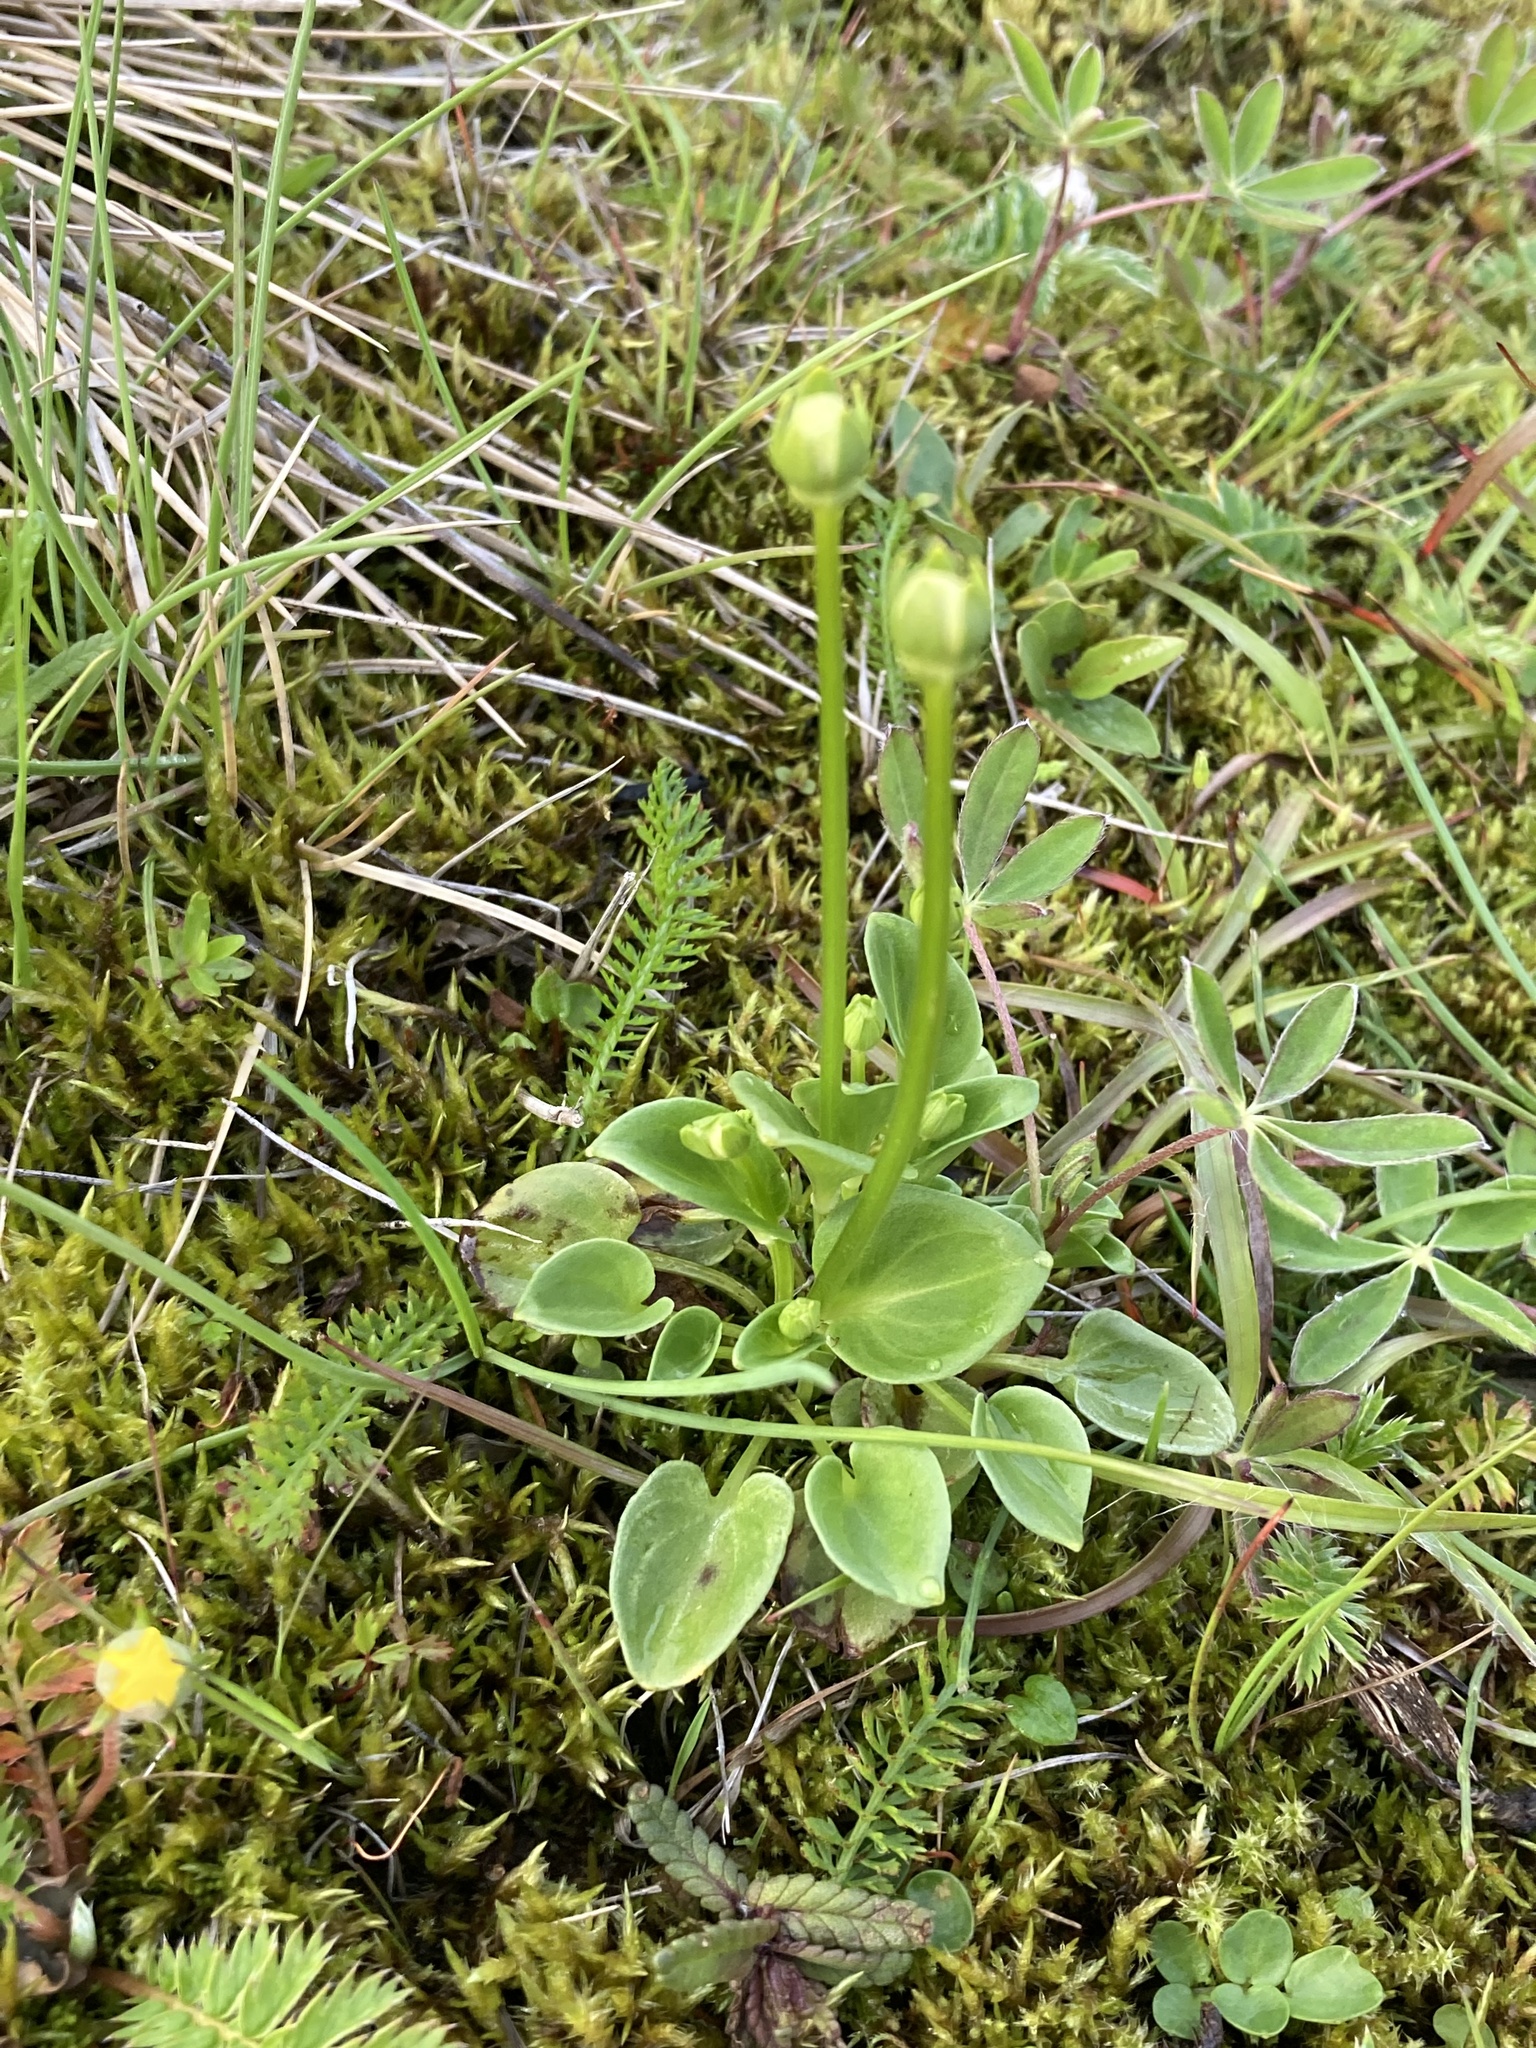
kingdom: Plantae
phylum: Tracheophyta
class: Magnoliopsida
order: Celastrales
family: Parnassiaceae
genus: Parnassia
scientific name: Parnassia palustris
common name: Grass-of-parnassus
